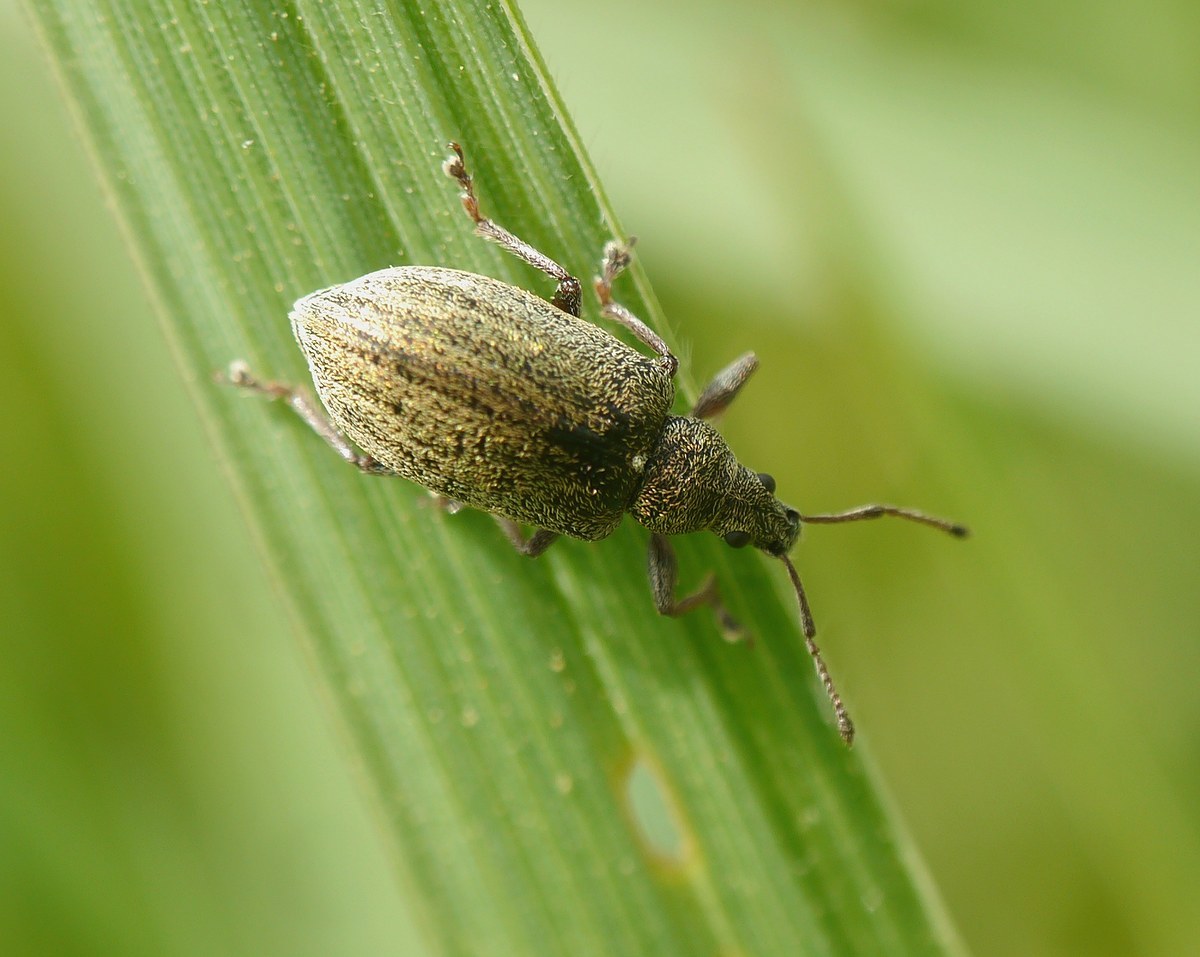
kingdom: Animalia
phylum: Arthropoda
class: Insecta
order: Coleoptera
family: Curculionidae
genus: Phyllobius
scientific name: Phyllobius pyri
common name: Common leaf weevil
